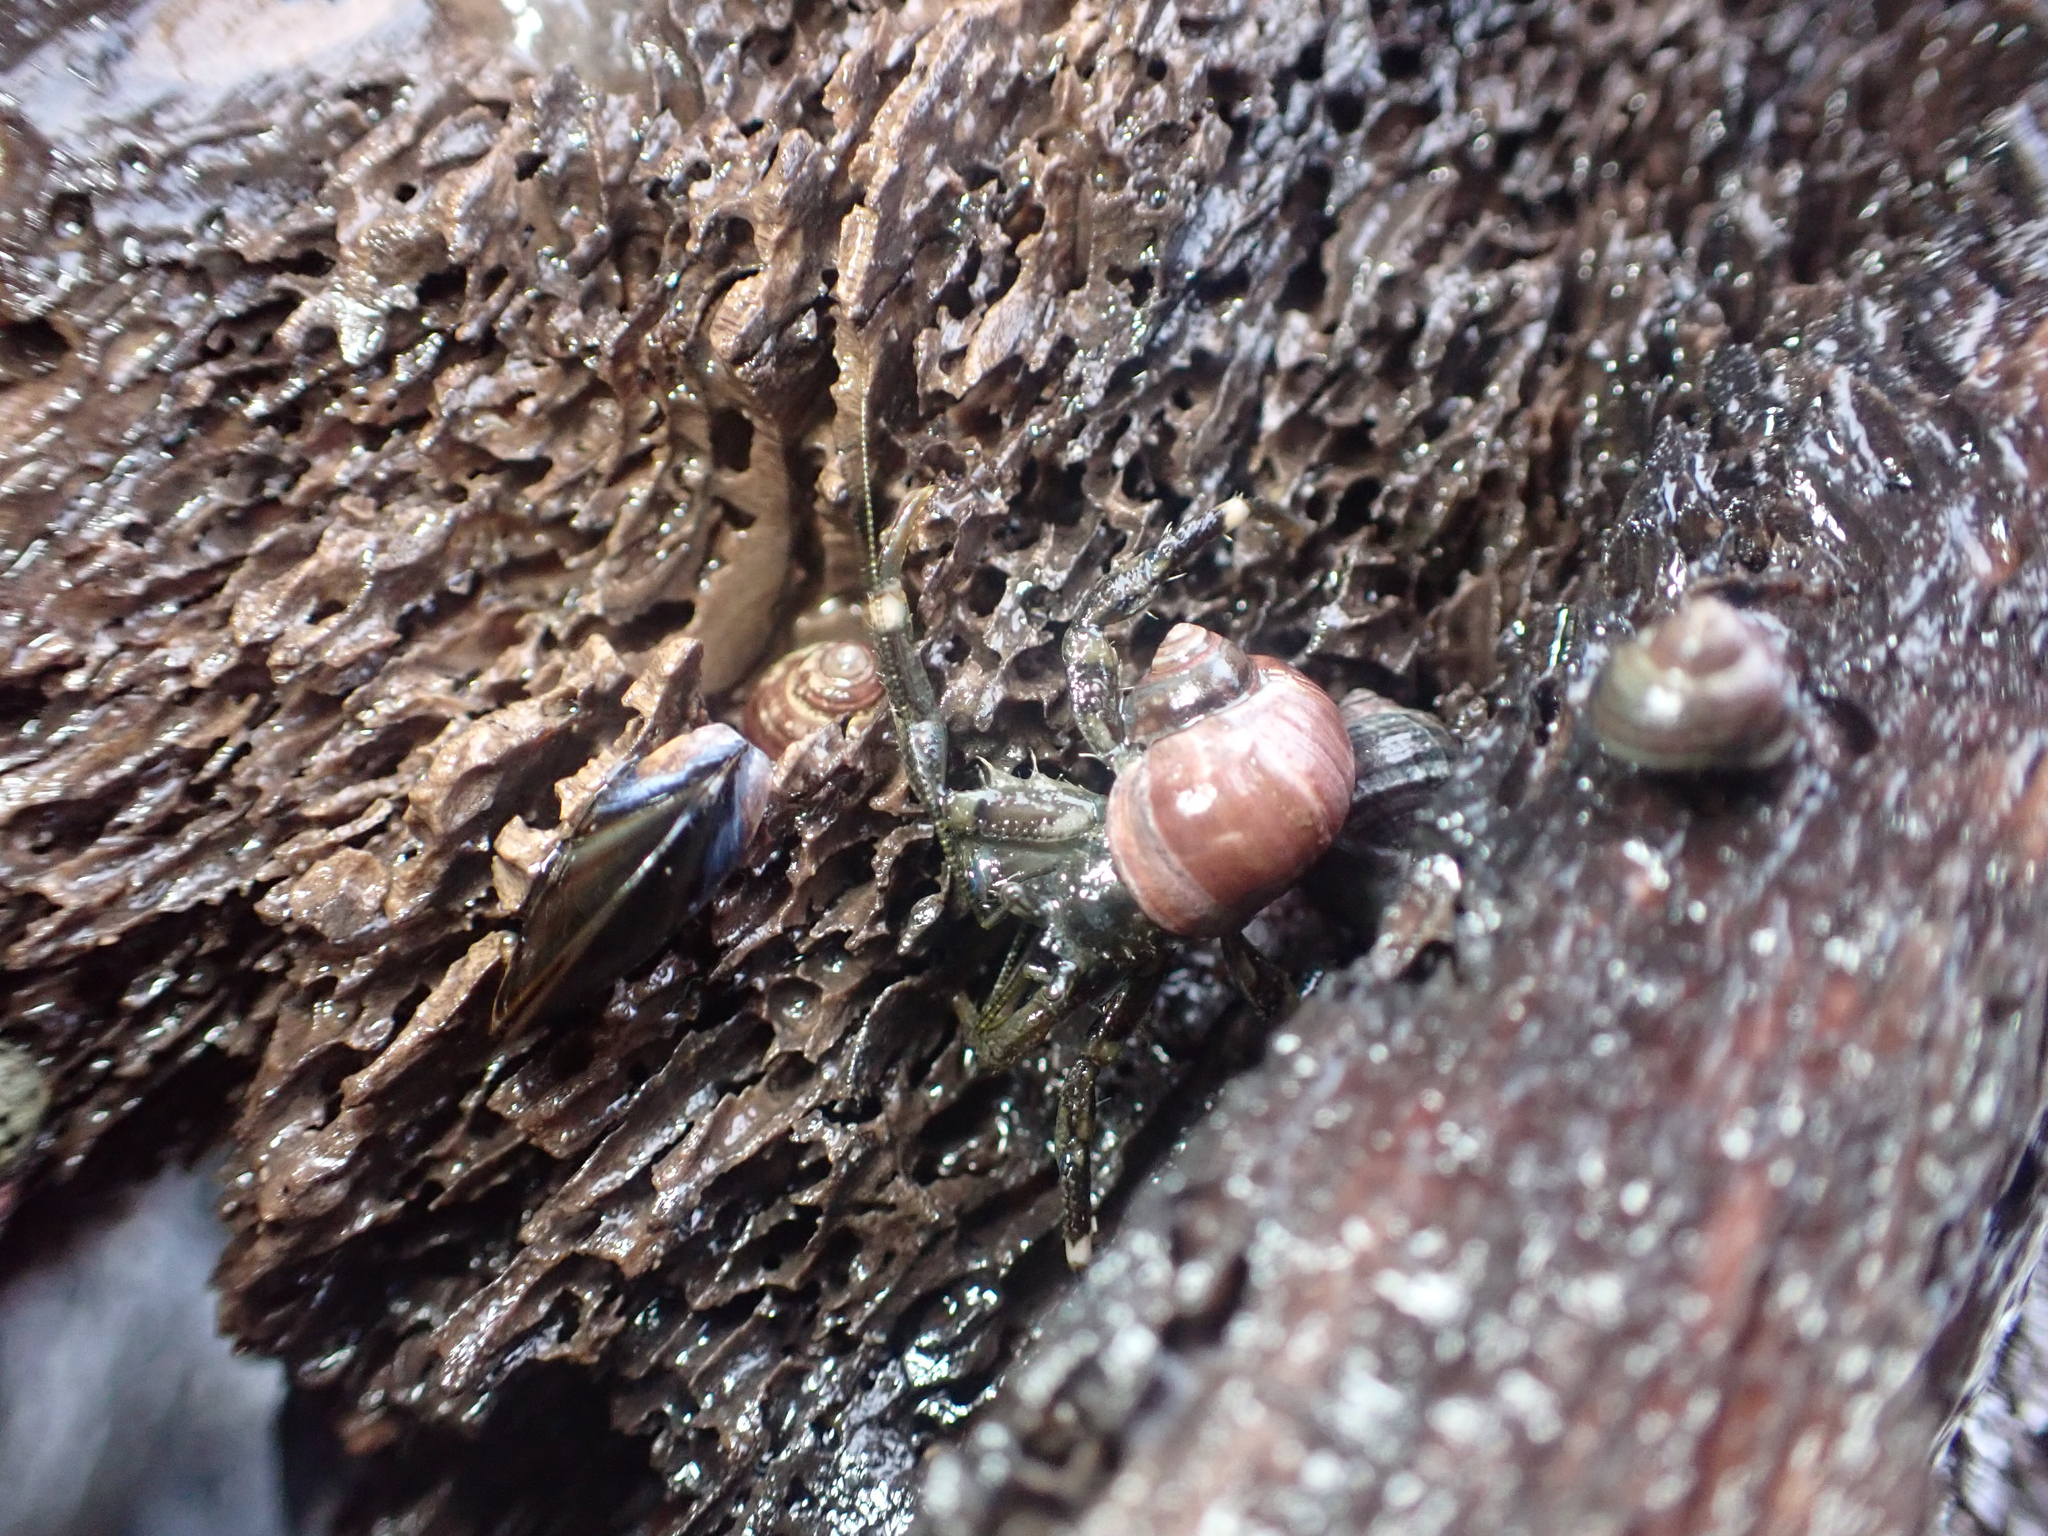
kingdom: Animalia
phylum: Arthropoda
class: Malacostraca
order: Decapoda
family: Paguridae
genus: Pagurus
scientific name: Pagurus hirsutiusculus
